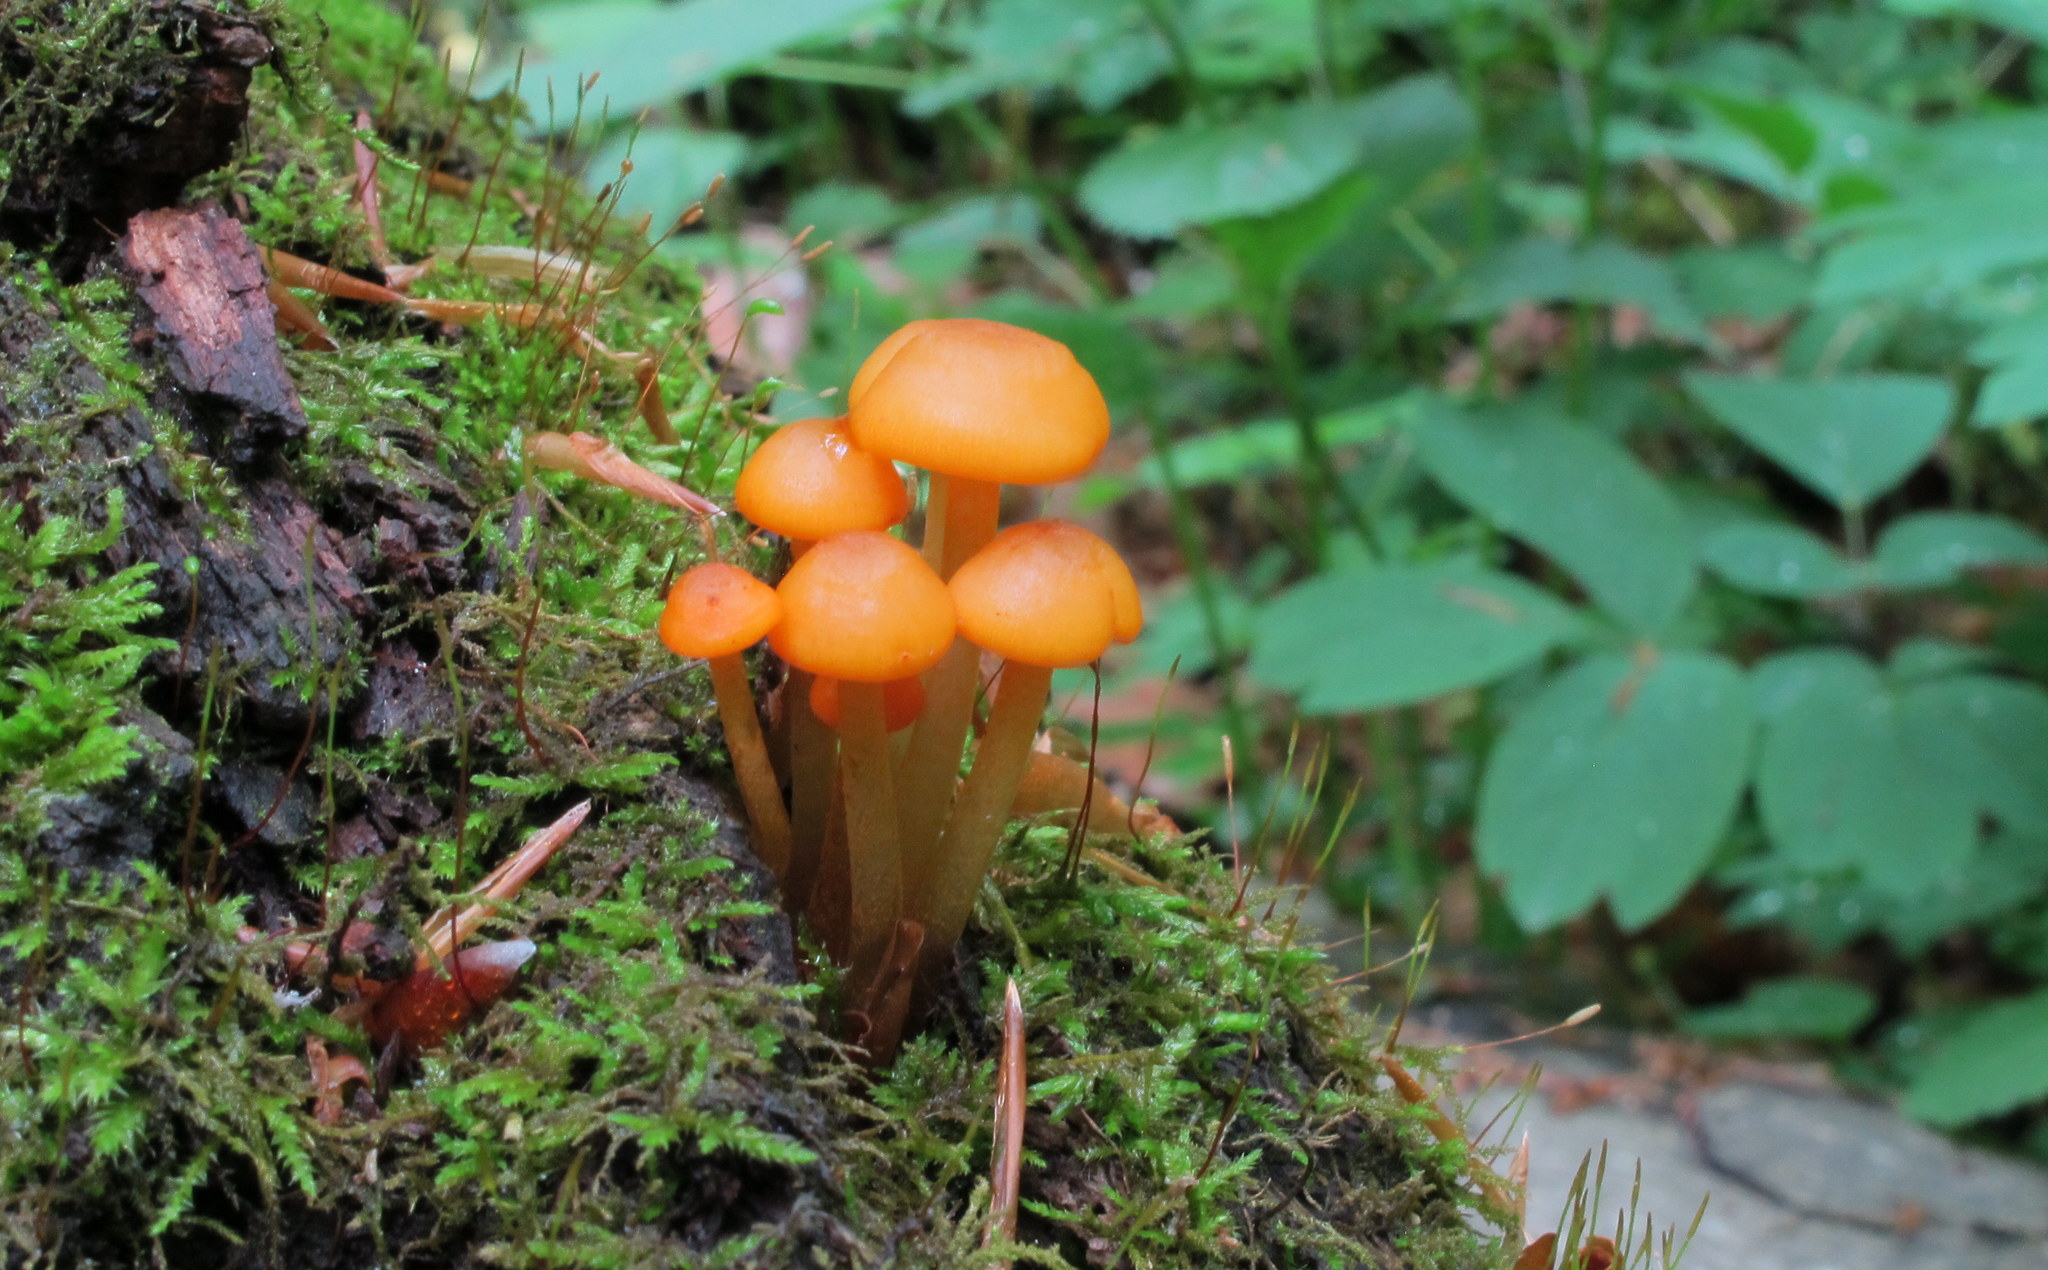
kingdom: Fungi
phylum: Basidiomycota
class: Agaricomycetes
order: Agaricales
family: Mycenaceae
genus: Mycena
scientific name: Mycena leaiana
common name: Orange mycena
